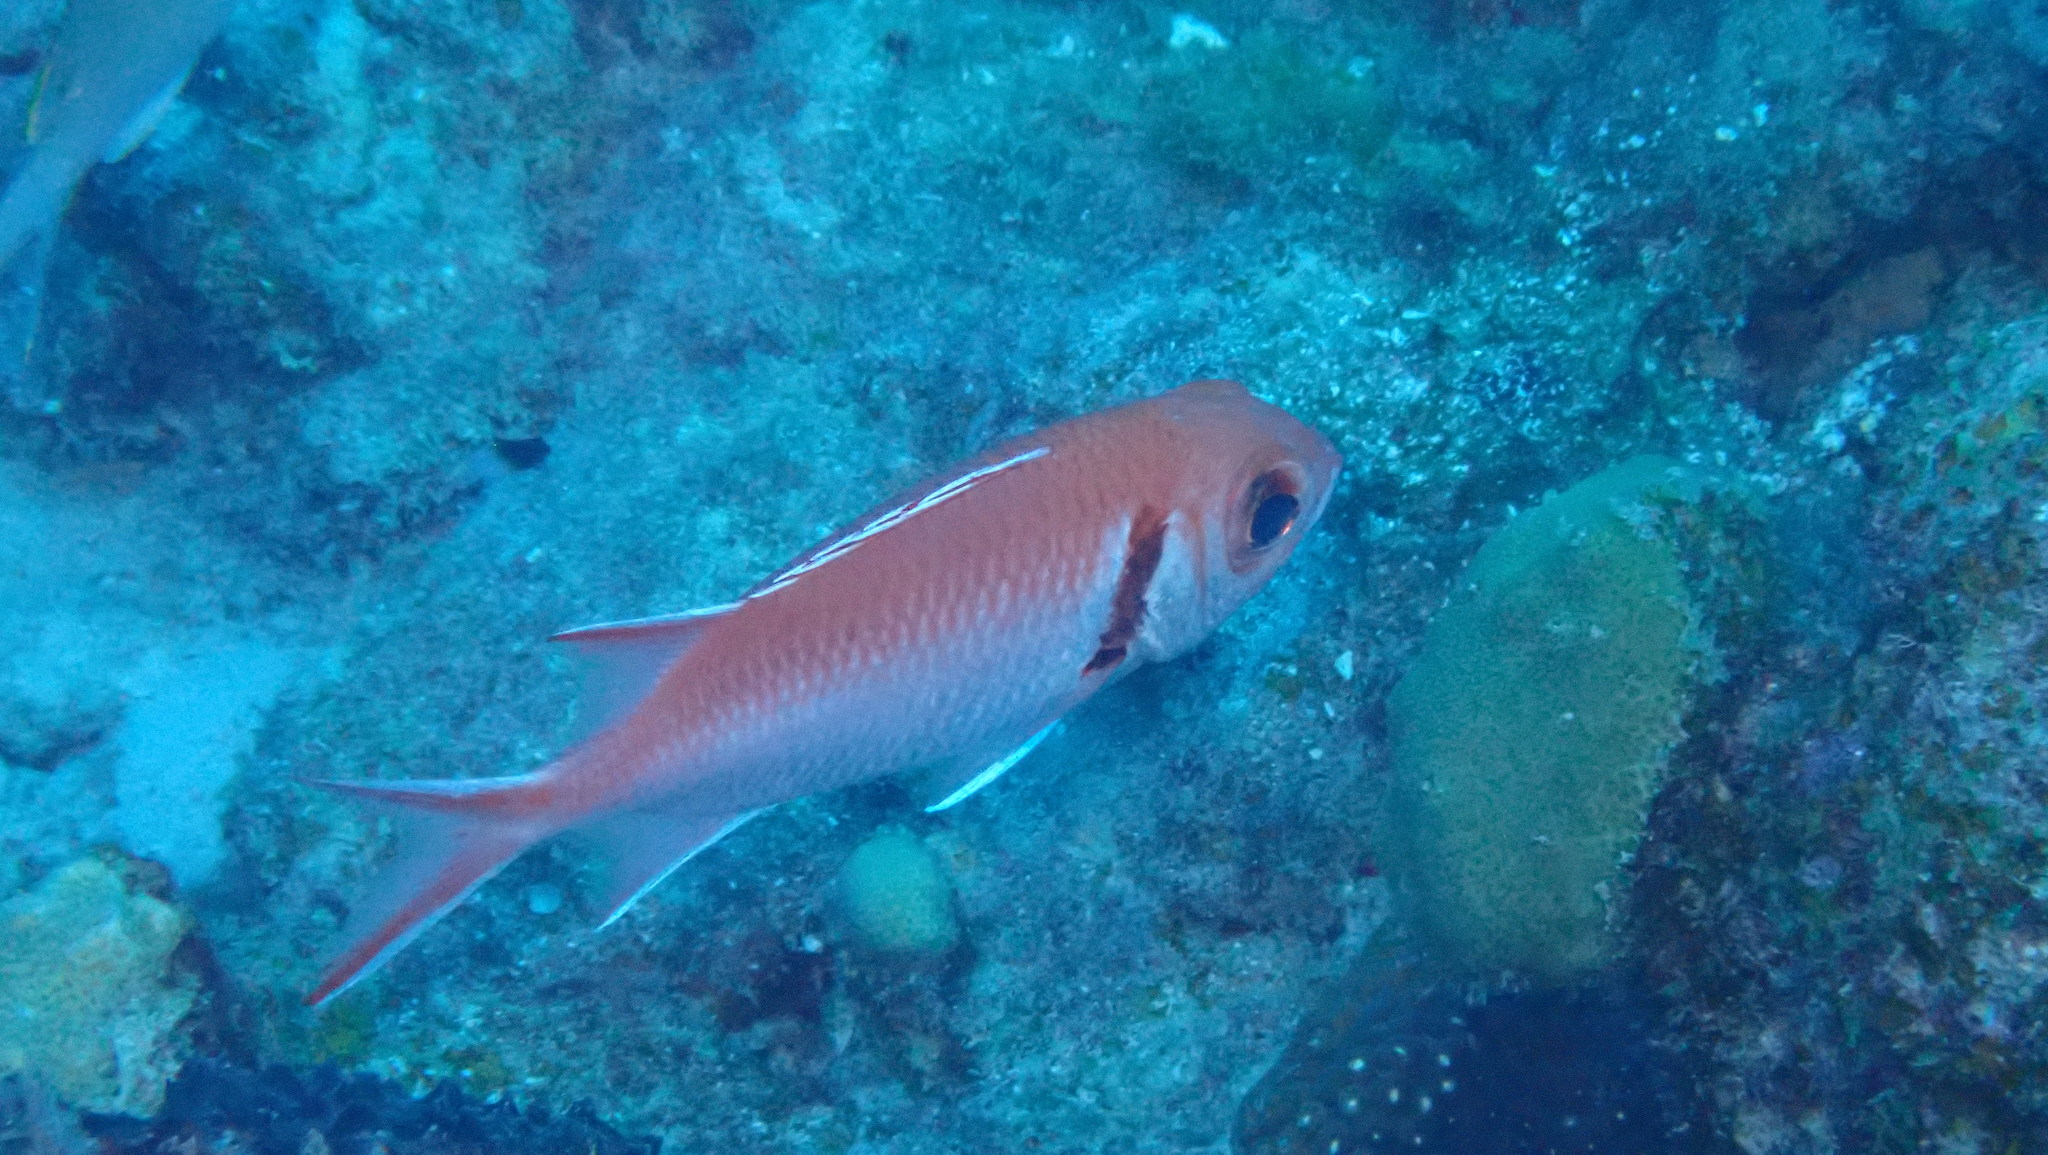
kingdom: Animalia
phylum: Chordata
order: Beryciformes
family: Holocentridae
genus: Myripristis
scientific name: Myripristis jacobus
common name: Blackbar soldierfish
